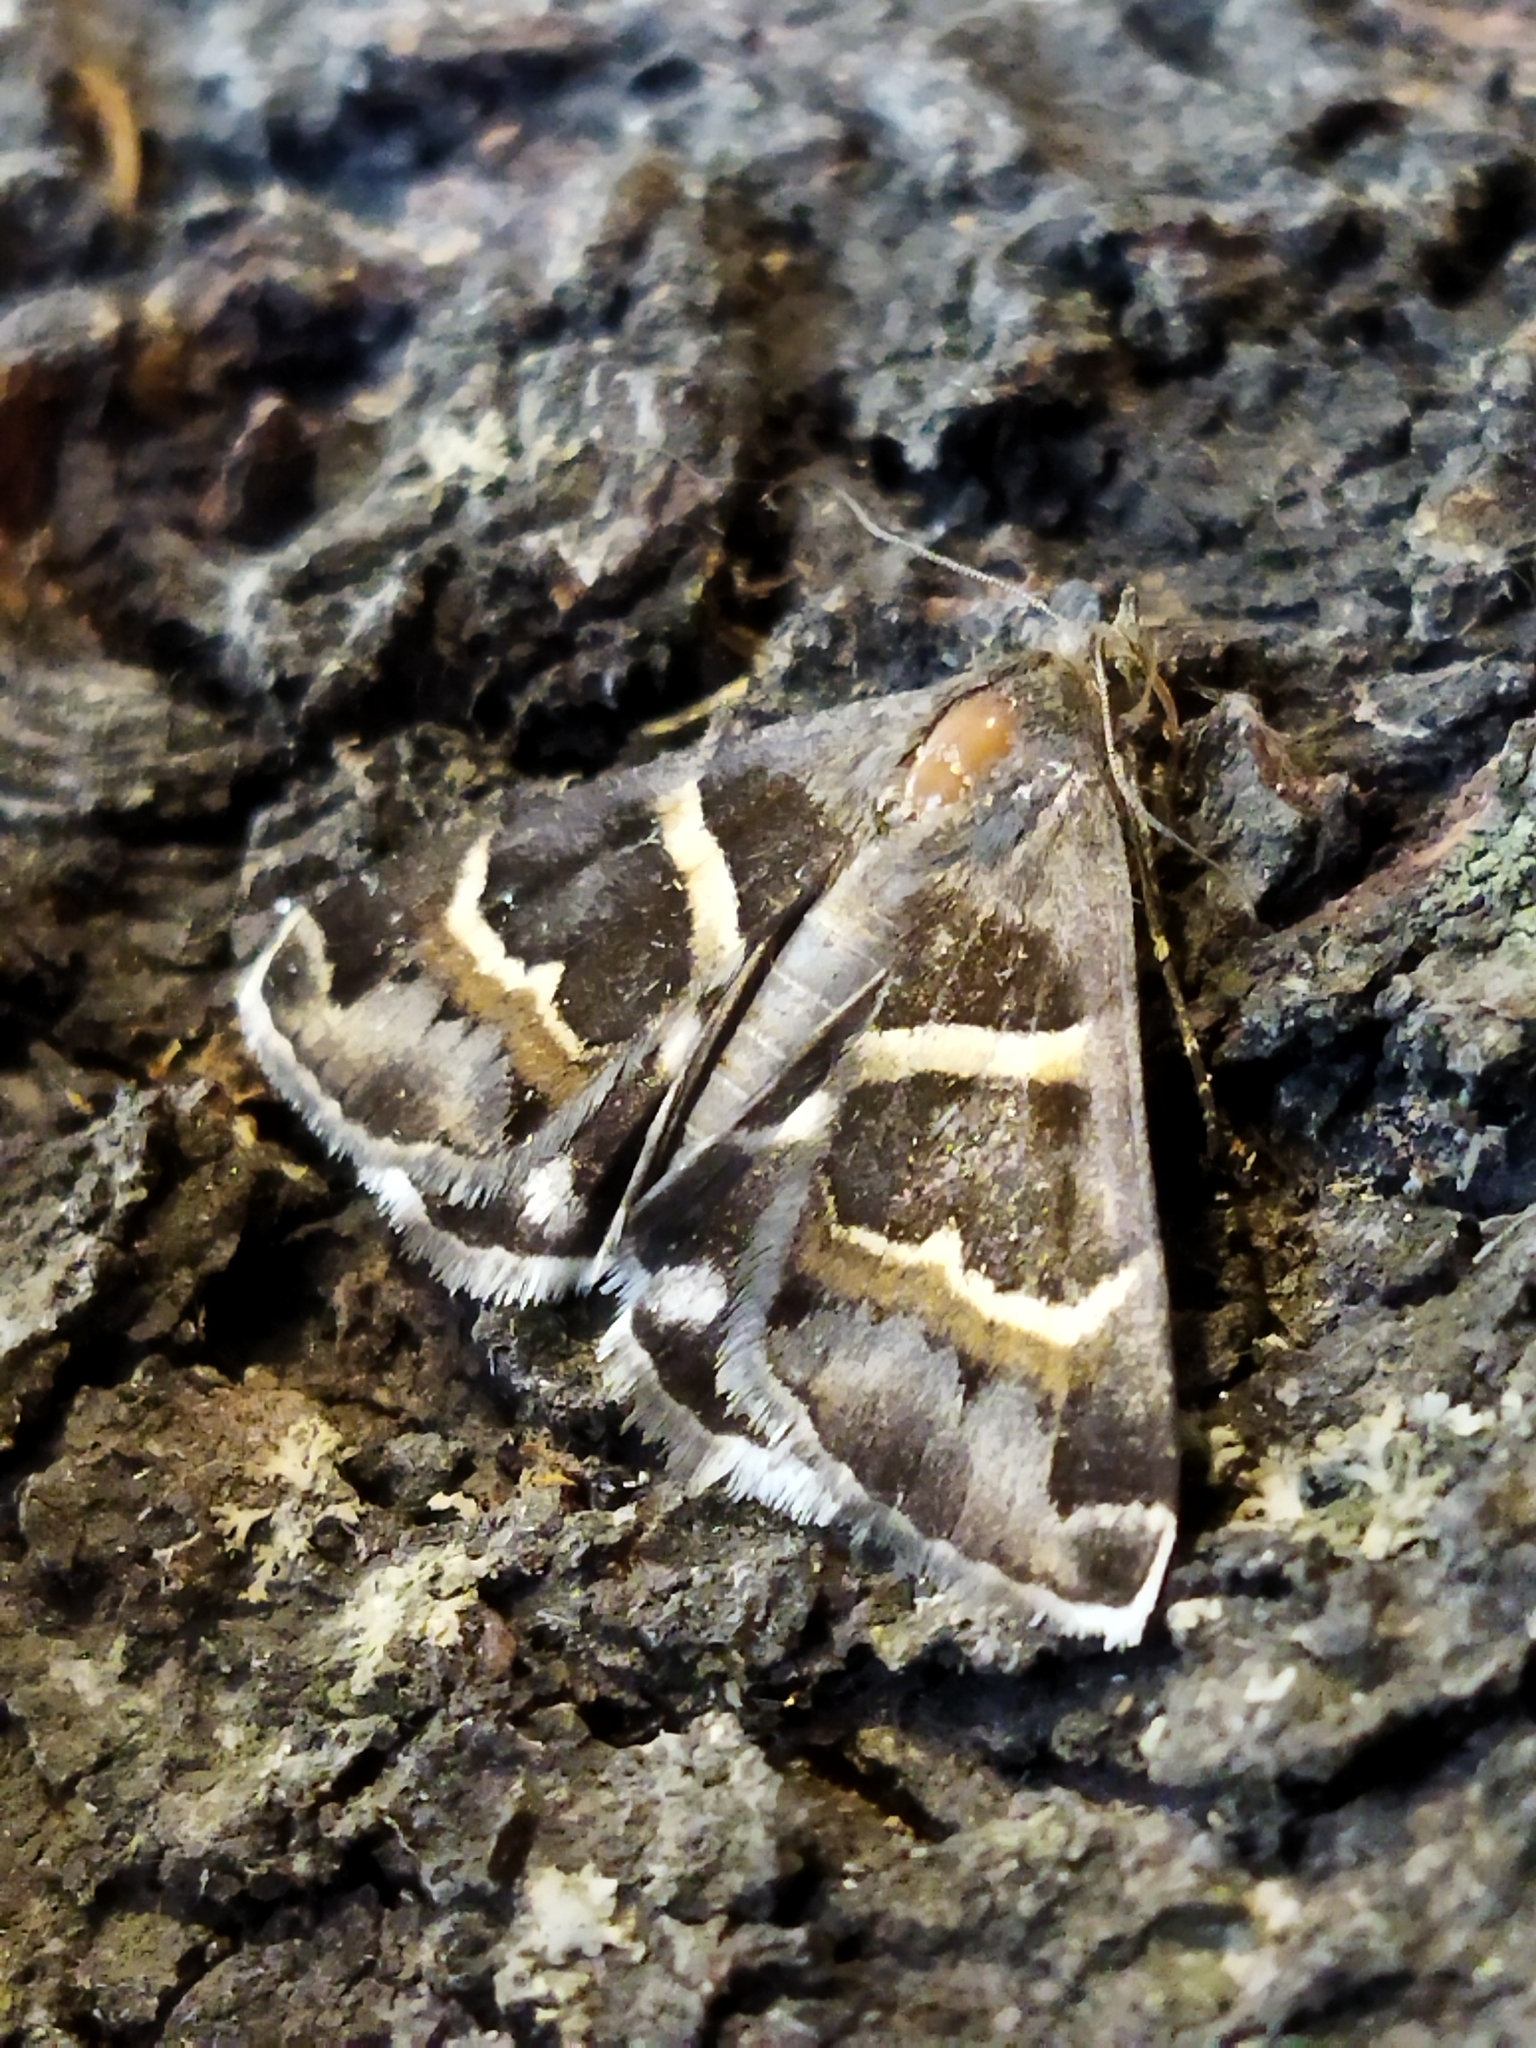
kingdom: Animalia
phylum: Arthropoda
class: Insecta
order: Lepidoptera
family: Erebidae
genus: Grammodes
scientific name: Grammodes stolida
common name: Geometrician
